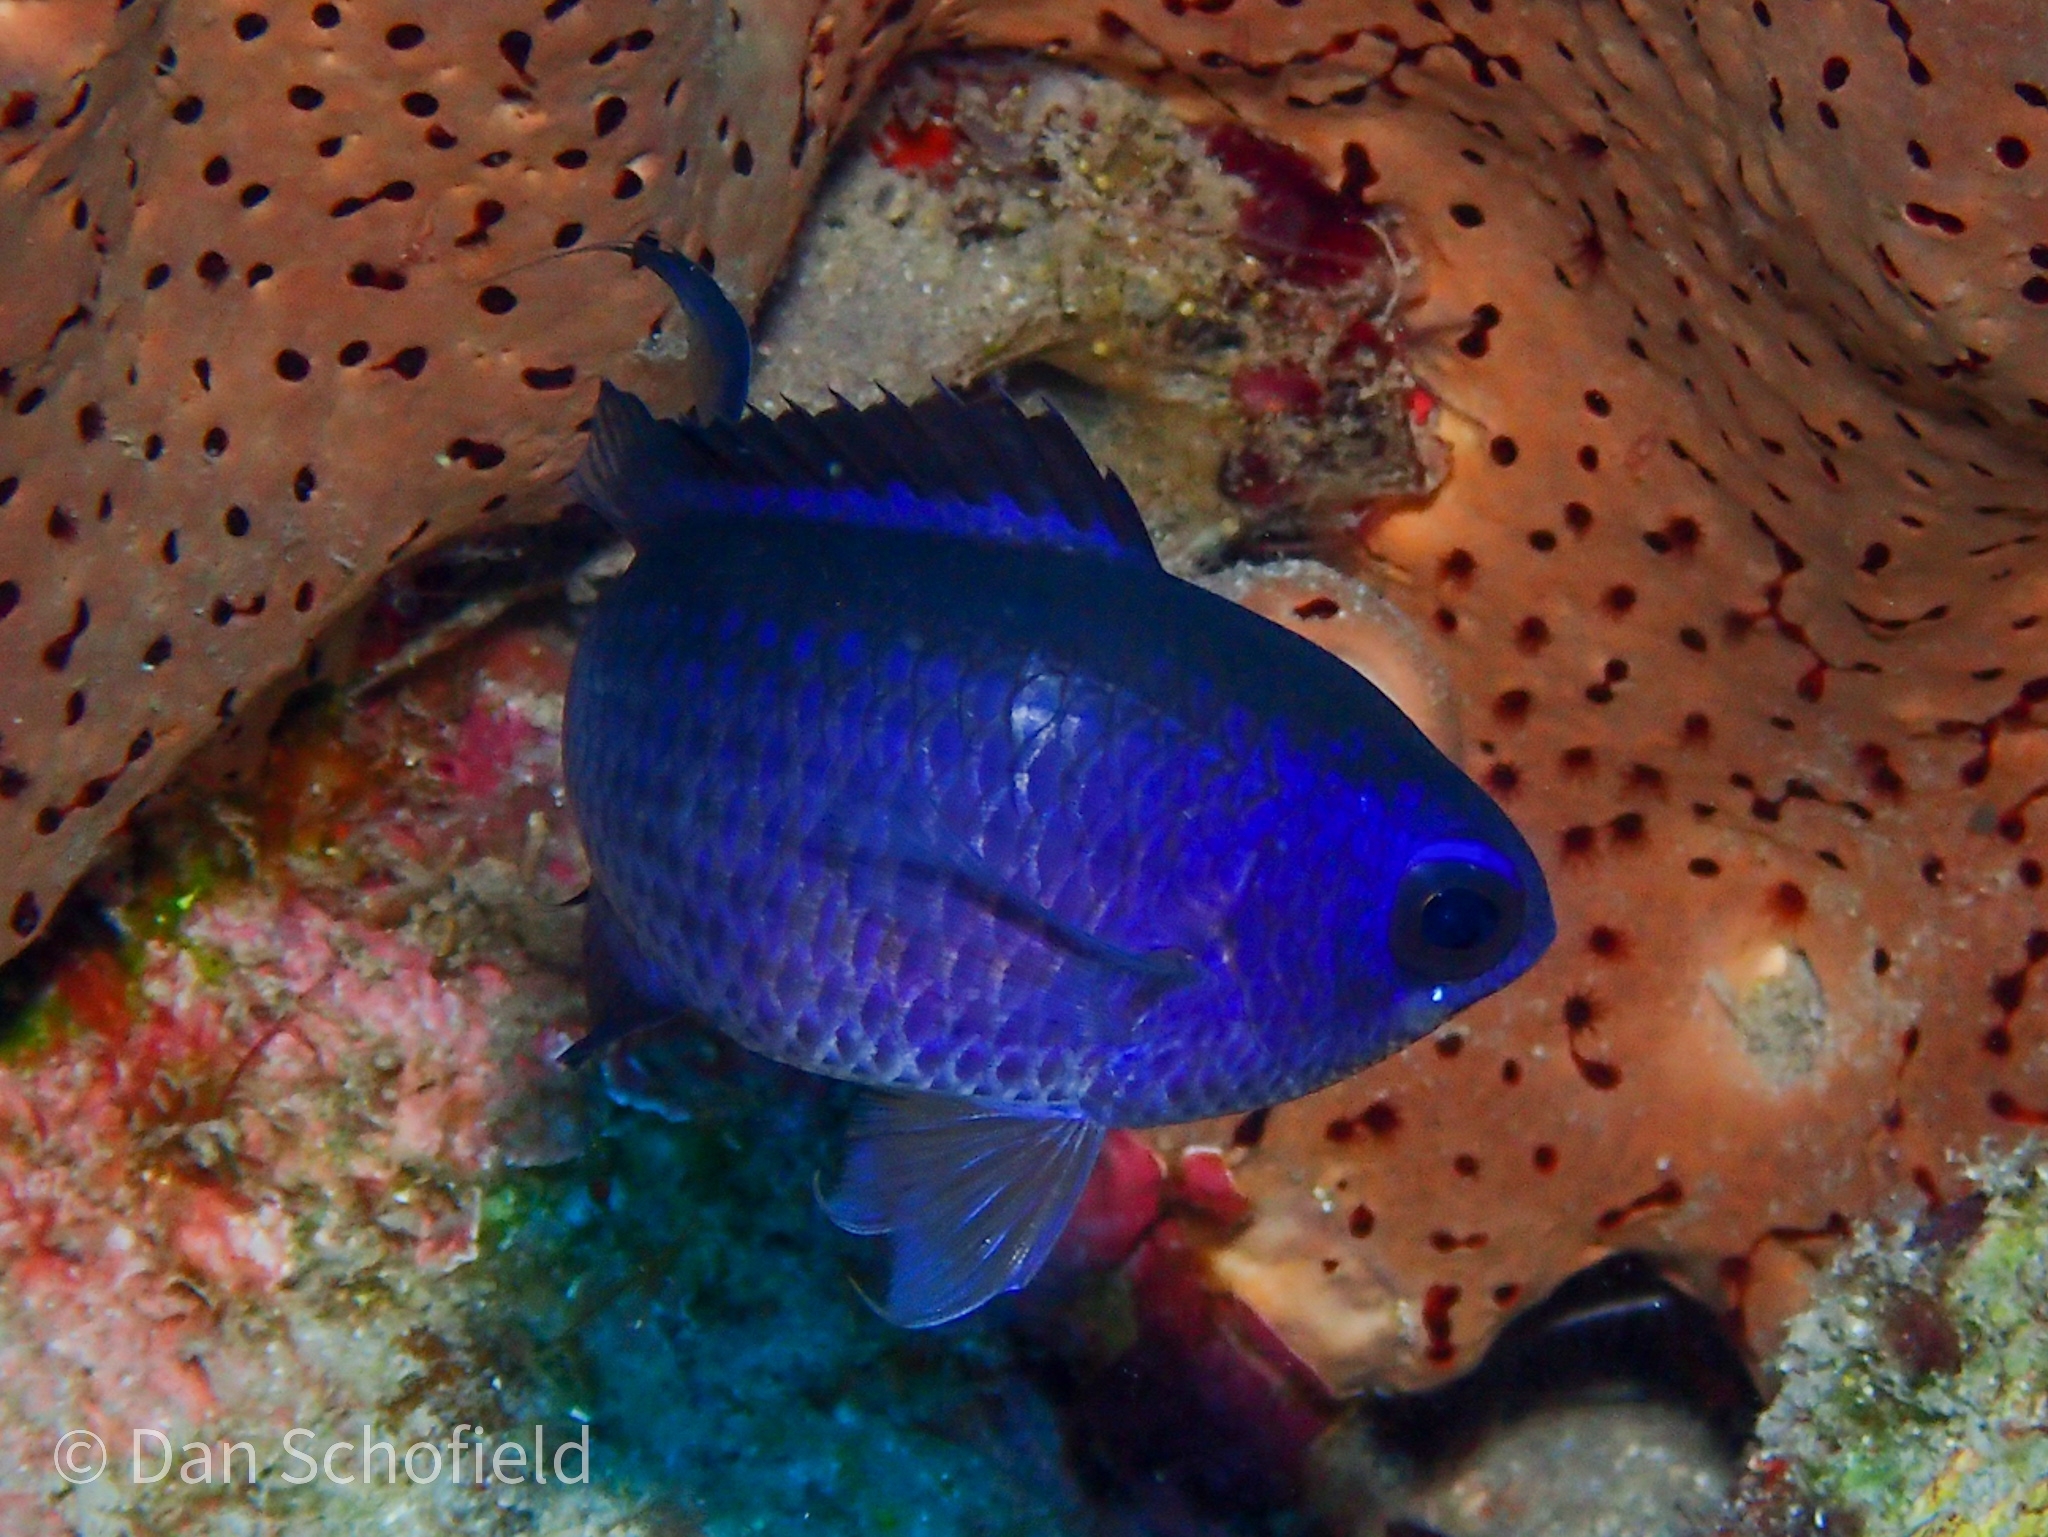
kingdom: Animalia
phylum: Chordata
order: Perciformes
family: Pomacentridae
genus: Chromis
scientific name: Chromis cyanea
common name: Blue chromis
